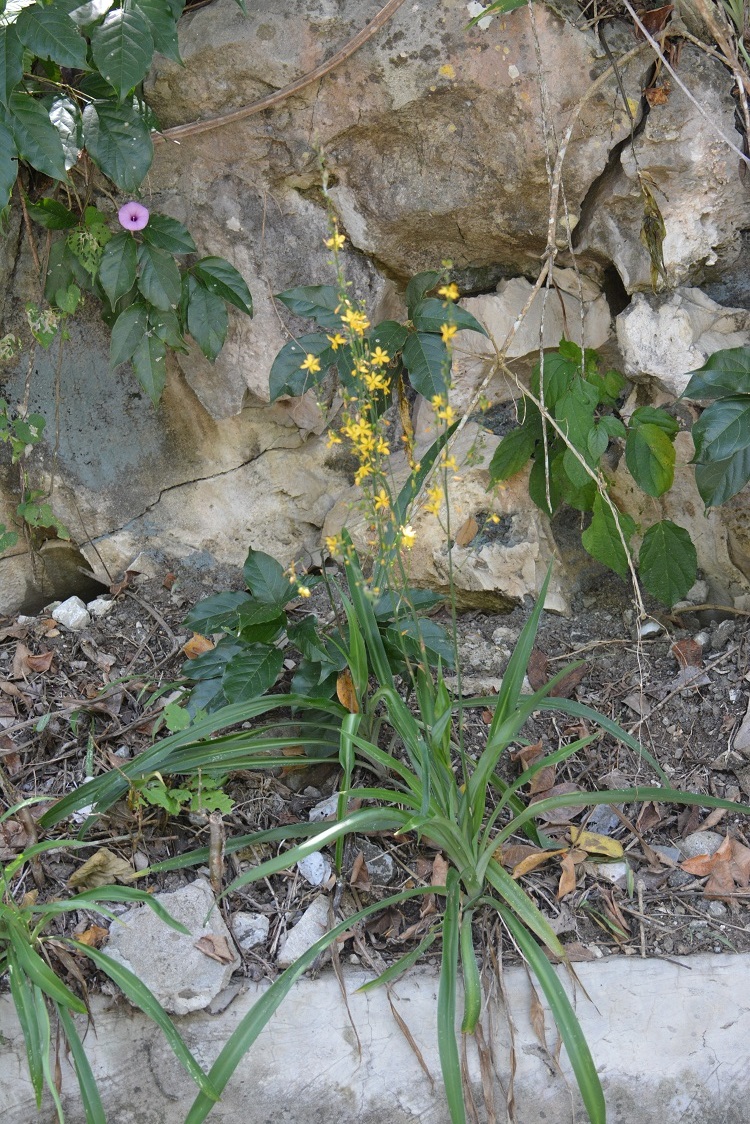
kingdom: Plantae
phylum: Tracheophyta
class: Liliopsida
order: Asparagales
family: Asparagaceae
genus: Echeandia
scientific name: Echeandia breedlovei
